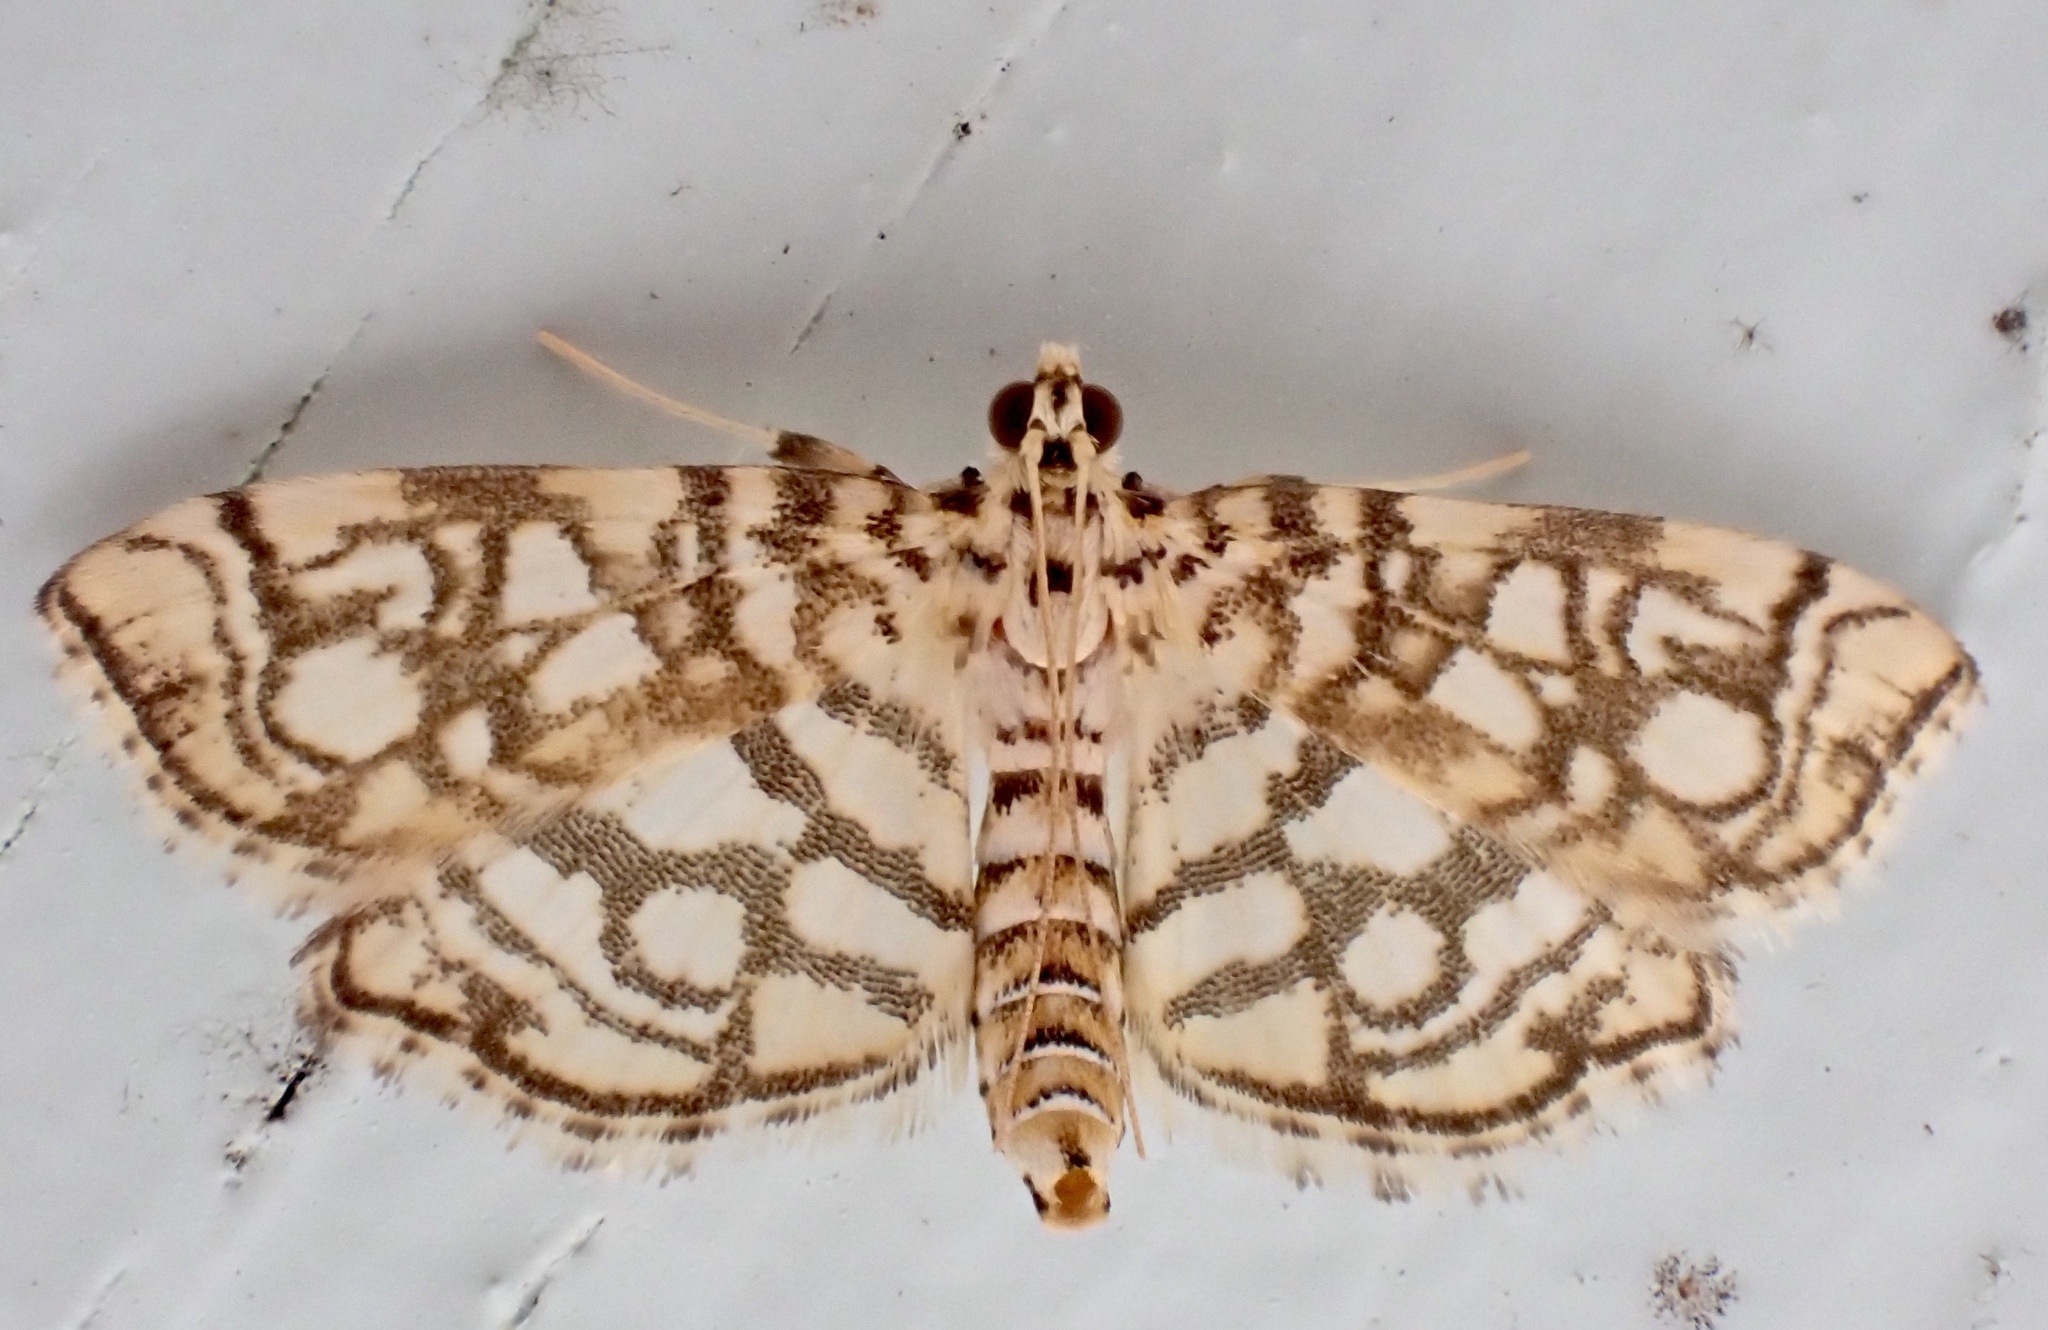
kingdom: Animalia
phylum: Arthropoda
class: Insecta
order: Lepidoptera
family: Crambidae
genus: Lygropia
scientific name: Lygropia rivulalis
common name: Bog lygropia moth
